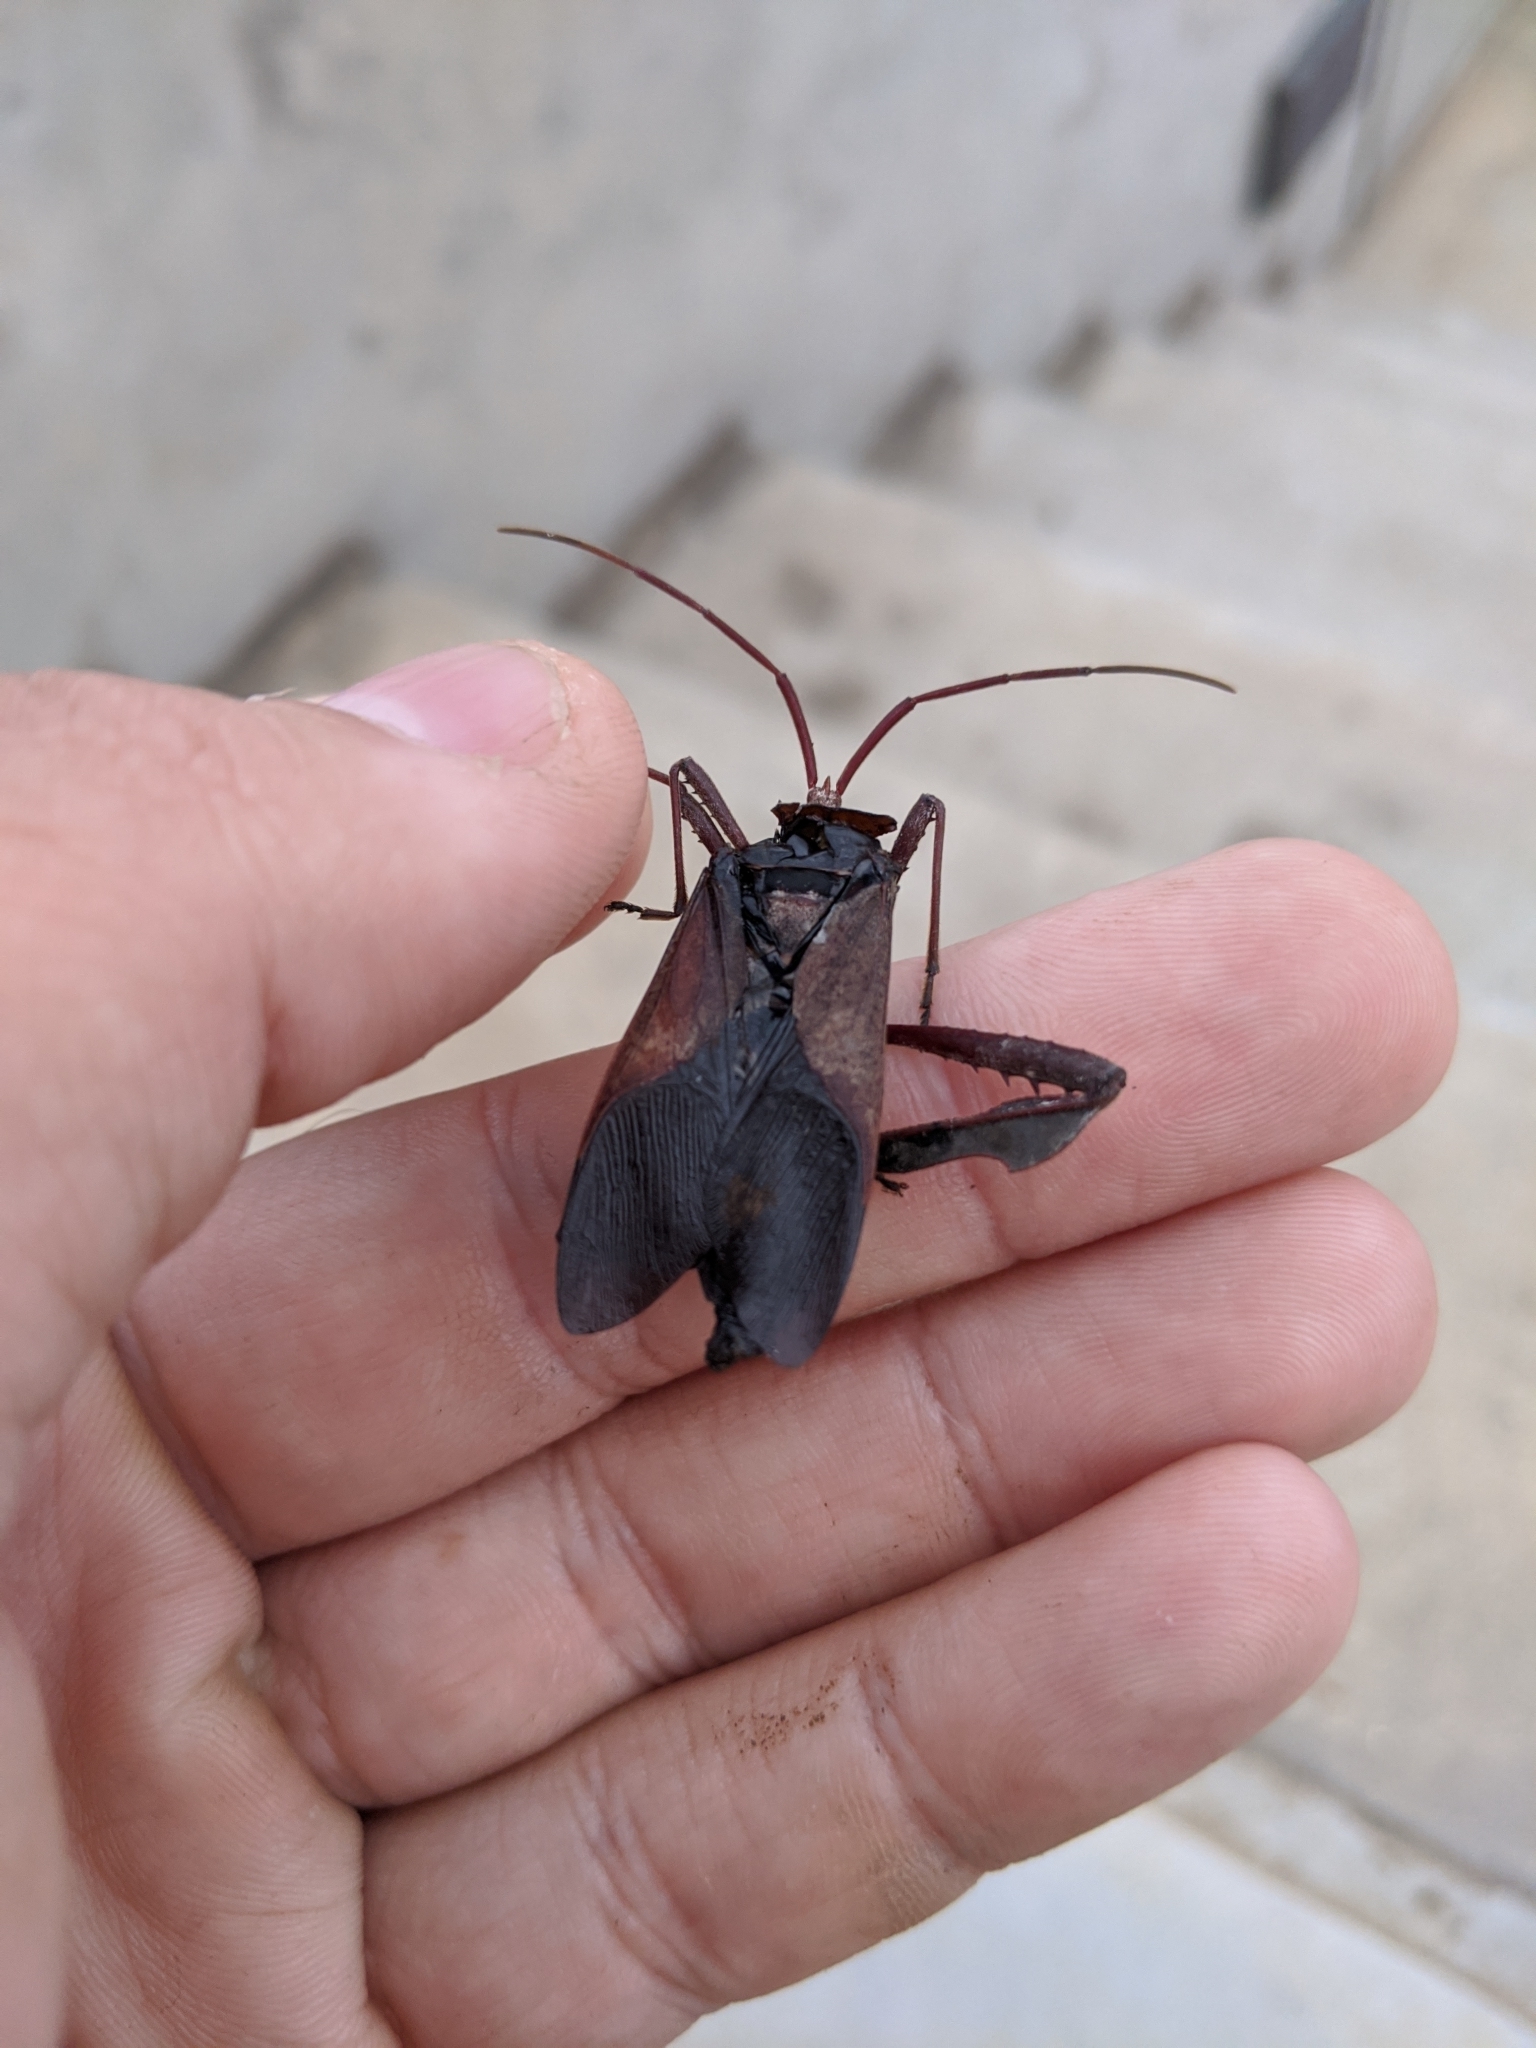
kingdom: Animalia
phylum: Arthropoda
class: Insecta
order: Hemiptera
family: Coreidae
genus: Acanthocephala
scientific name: Acanthocephala declivis
